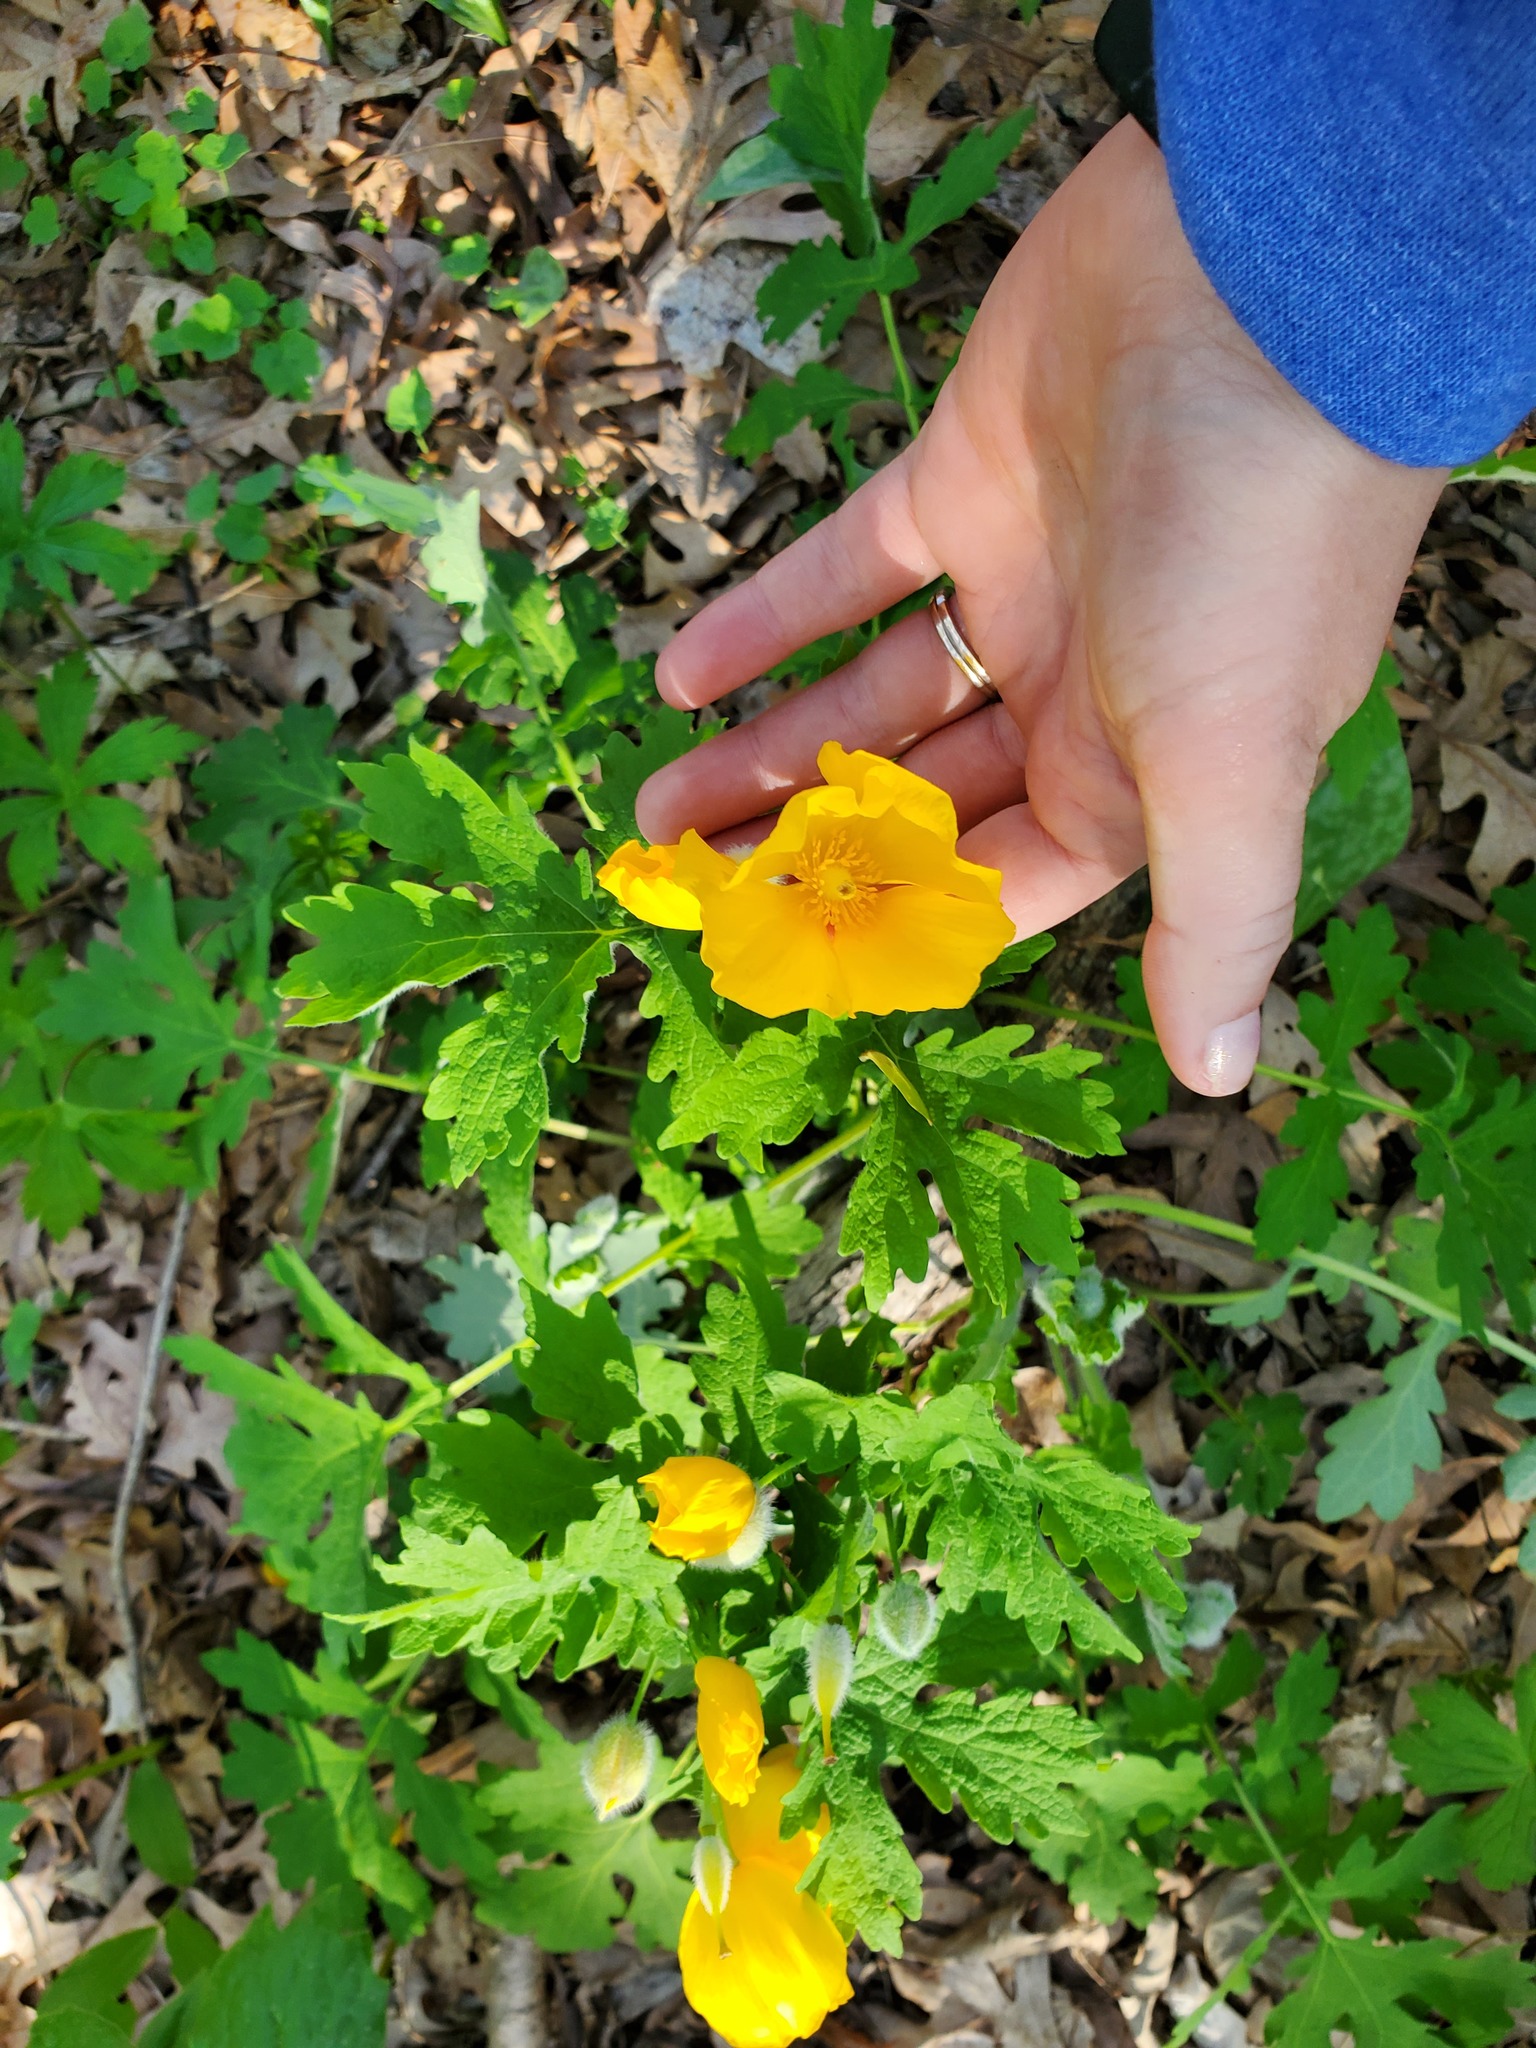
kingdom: Plantae
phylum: Tracheophyta
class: Magnoliopsida
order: Ranunculales
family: Papaveraceae
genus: Stylophorum
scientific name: Stylophorum diphyllum
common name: Celandine poppy
